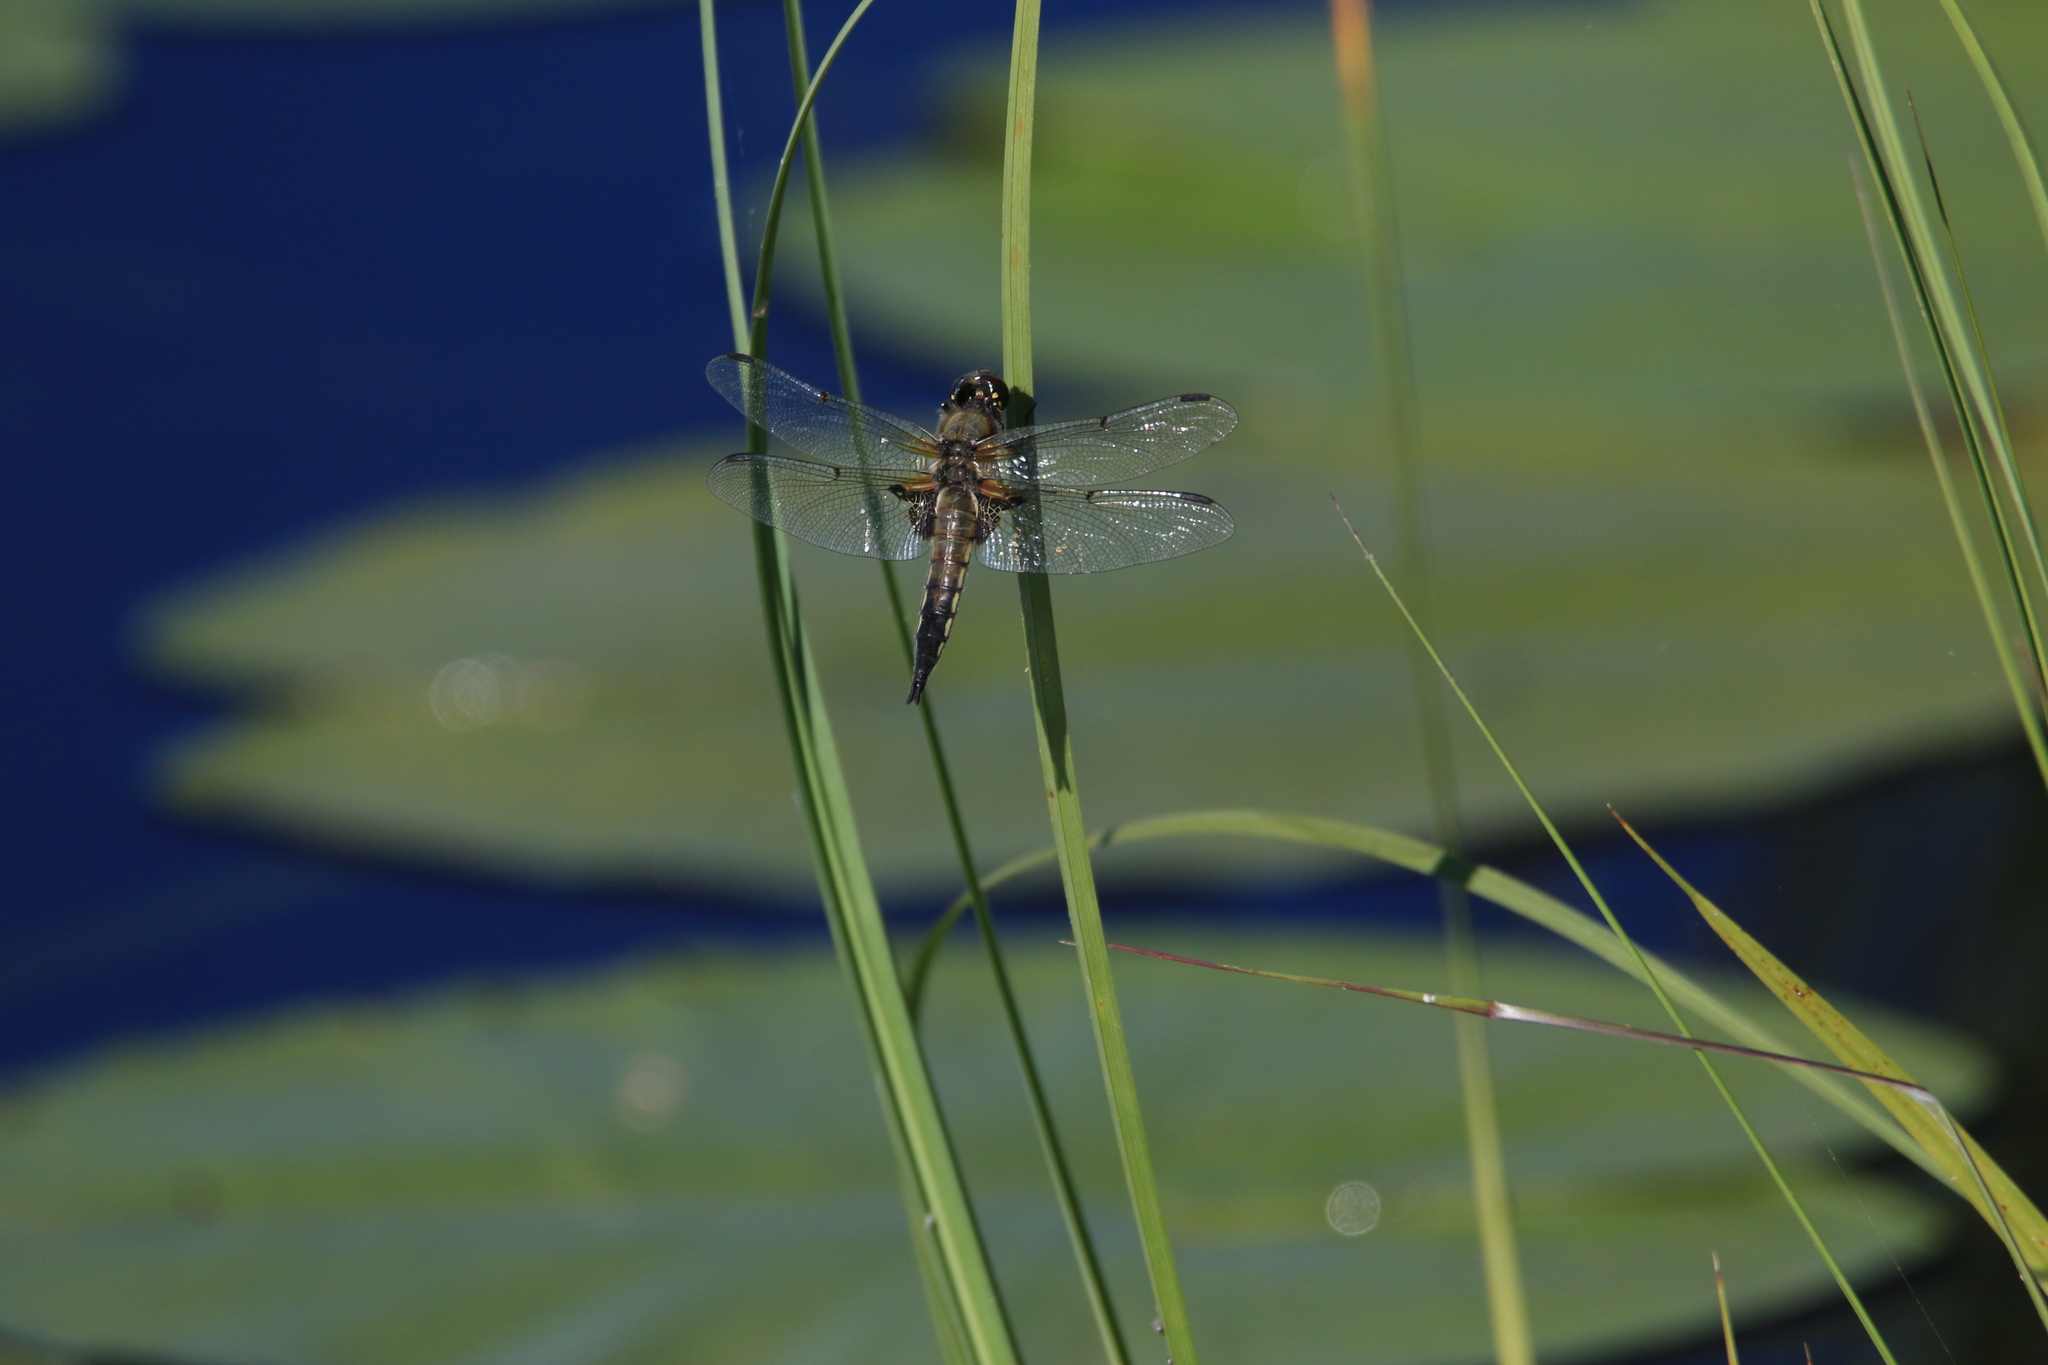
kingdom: Animalia
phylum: Arthropoda
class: Insecta
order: Odonata
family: Libellulidae
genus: Libellula
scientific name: Libellula quadrimaculata
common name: Four-spotted chaser
